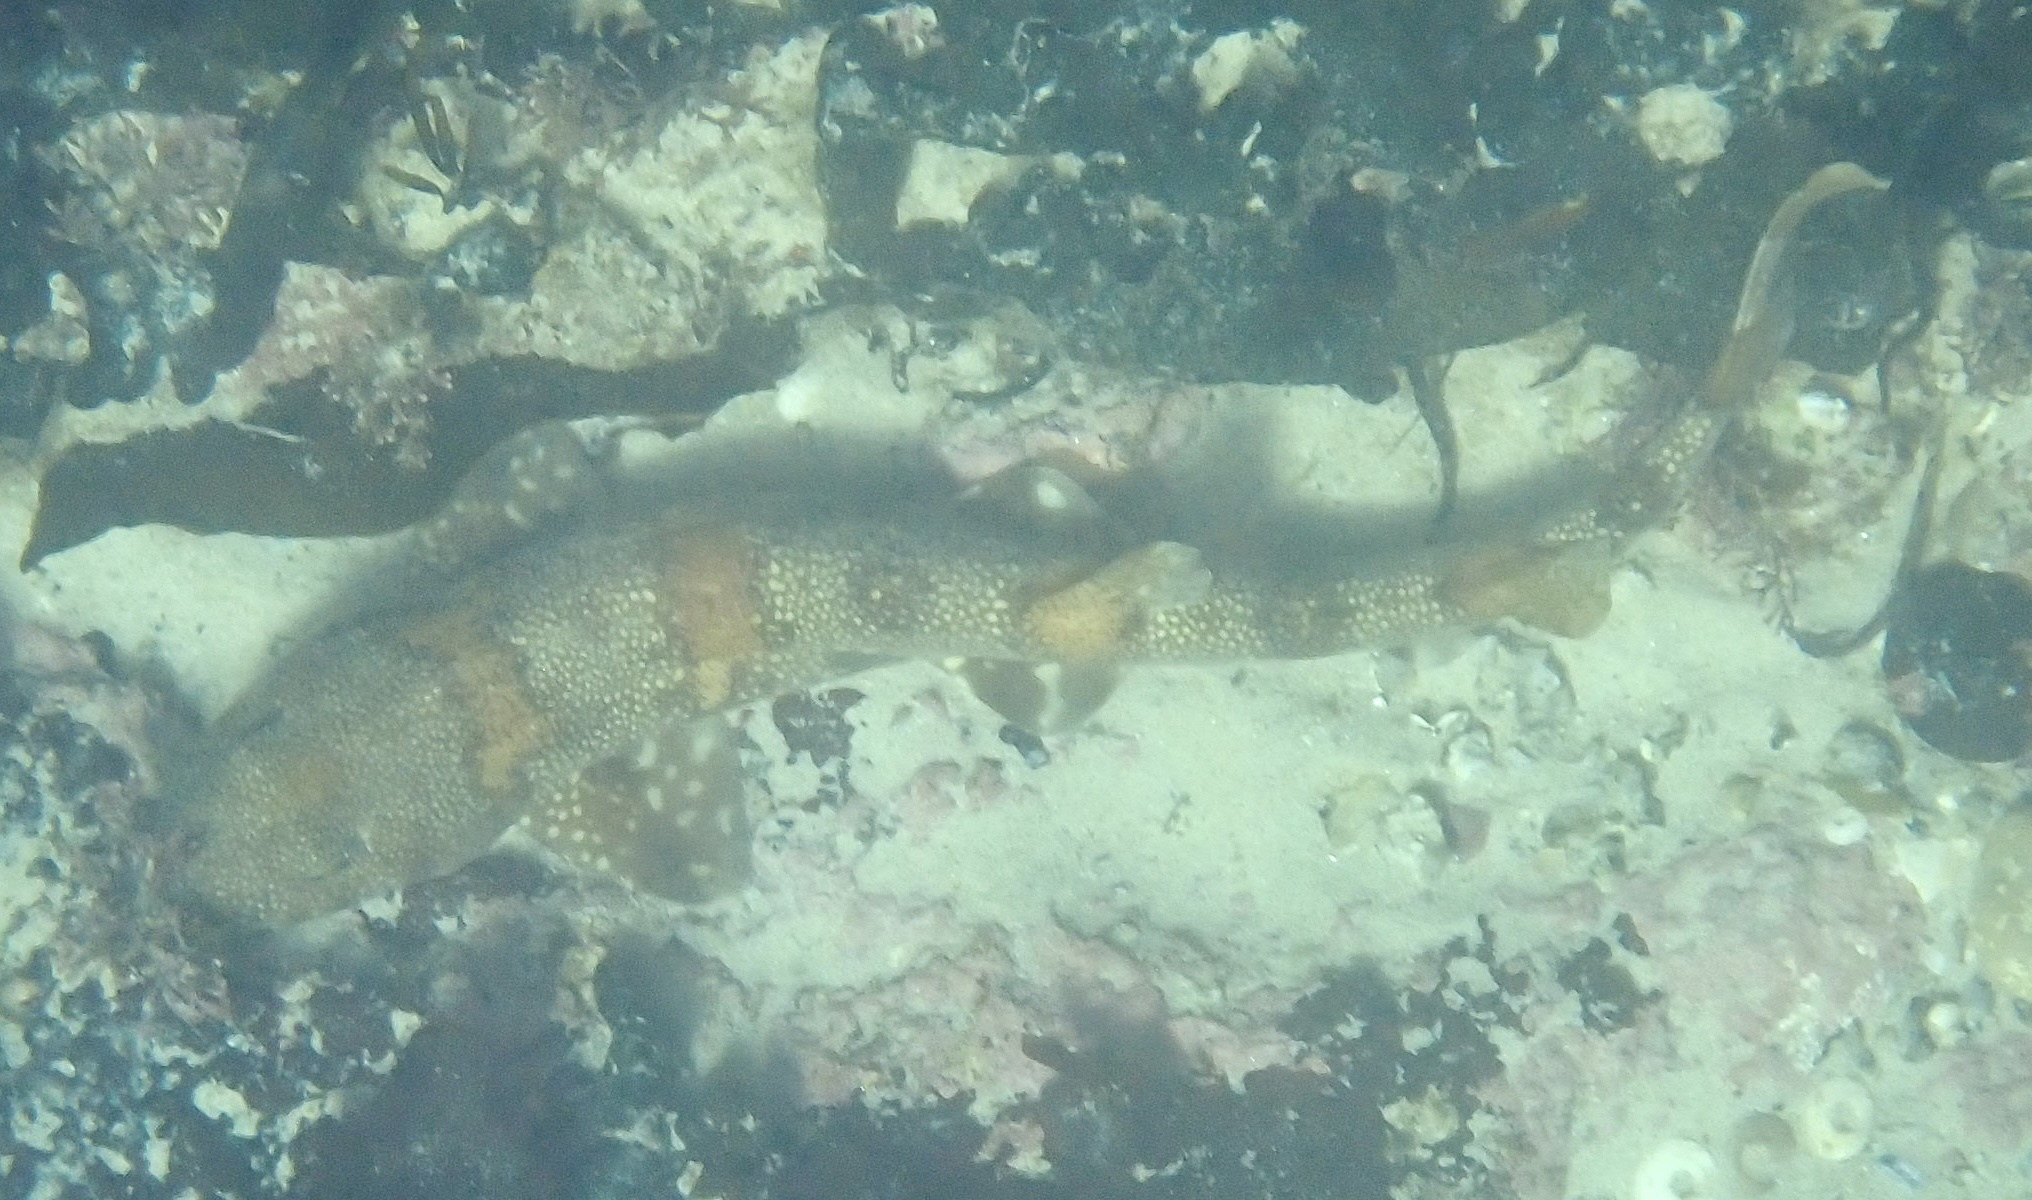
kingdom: Animalia
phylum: Chordata
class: Elasmobranchii
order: Carcharhiniformes
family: Scyliorhinidae
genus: Haploblepharus
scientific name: Haploblepharus edwardsii
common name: Puffadder shyshark
